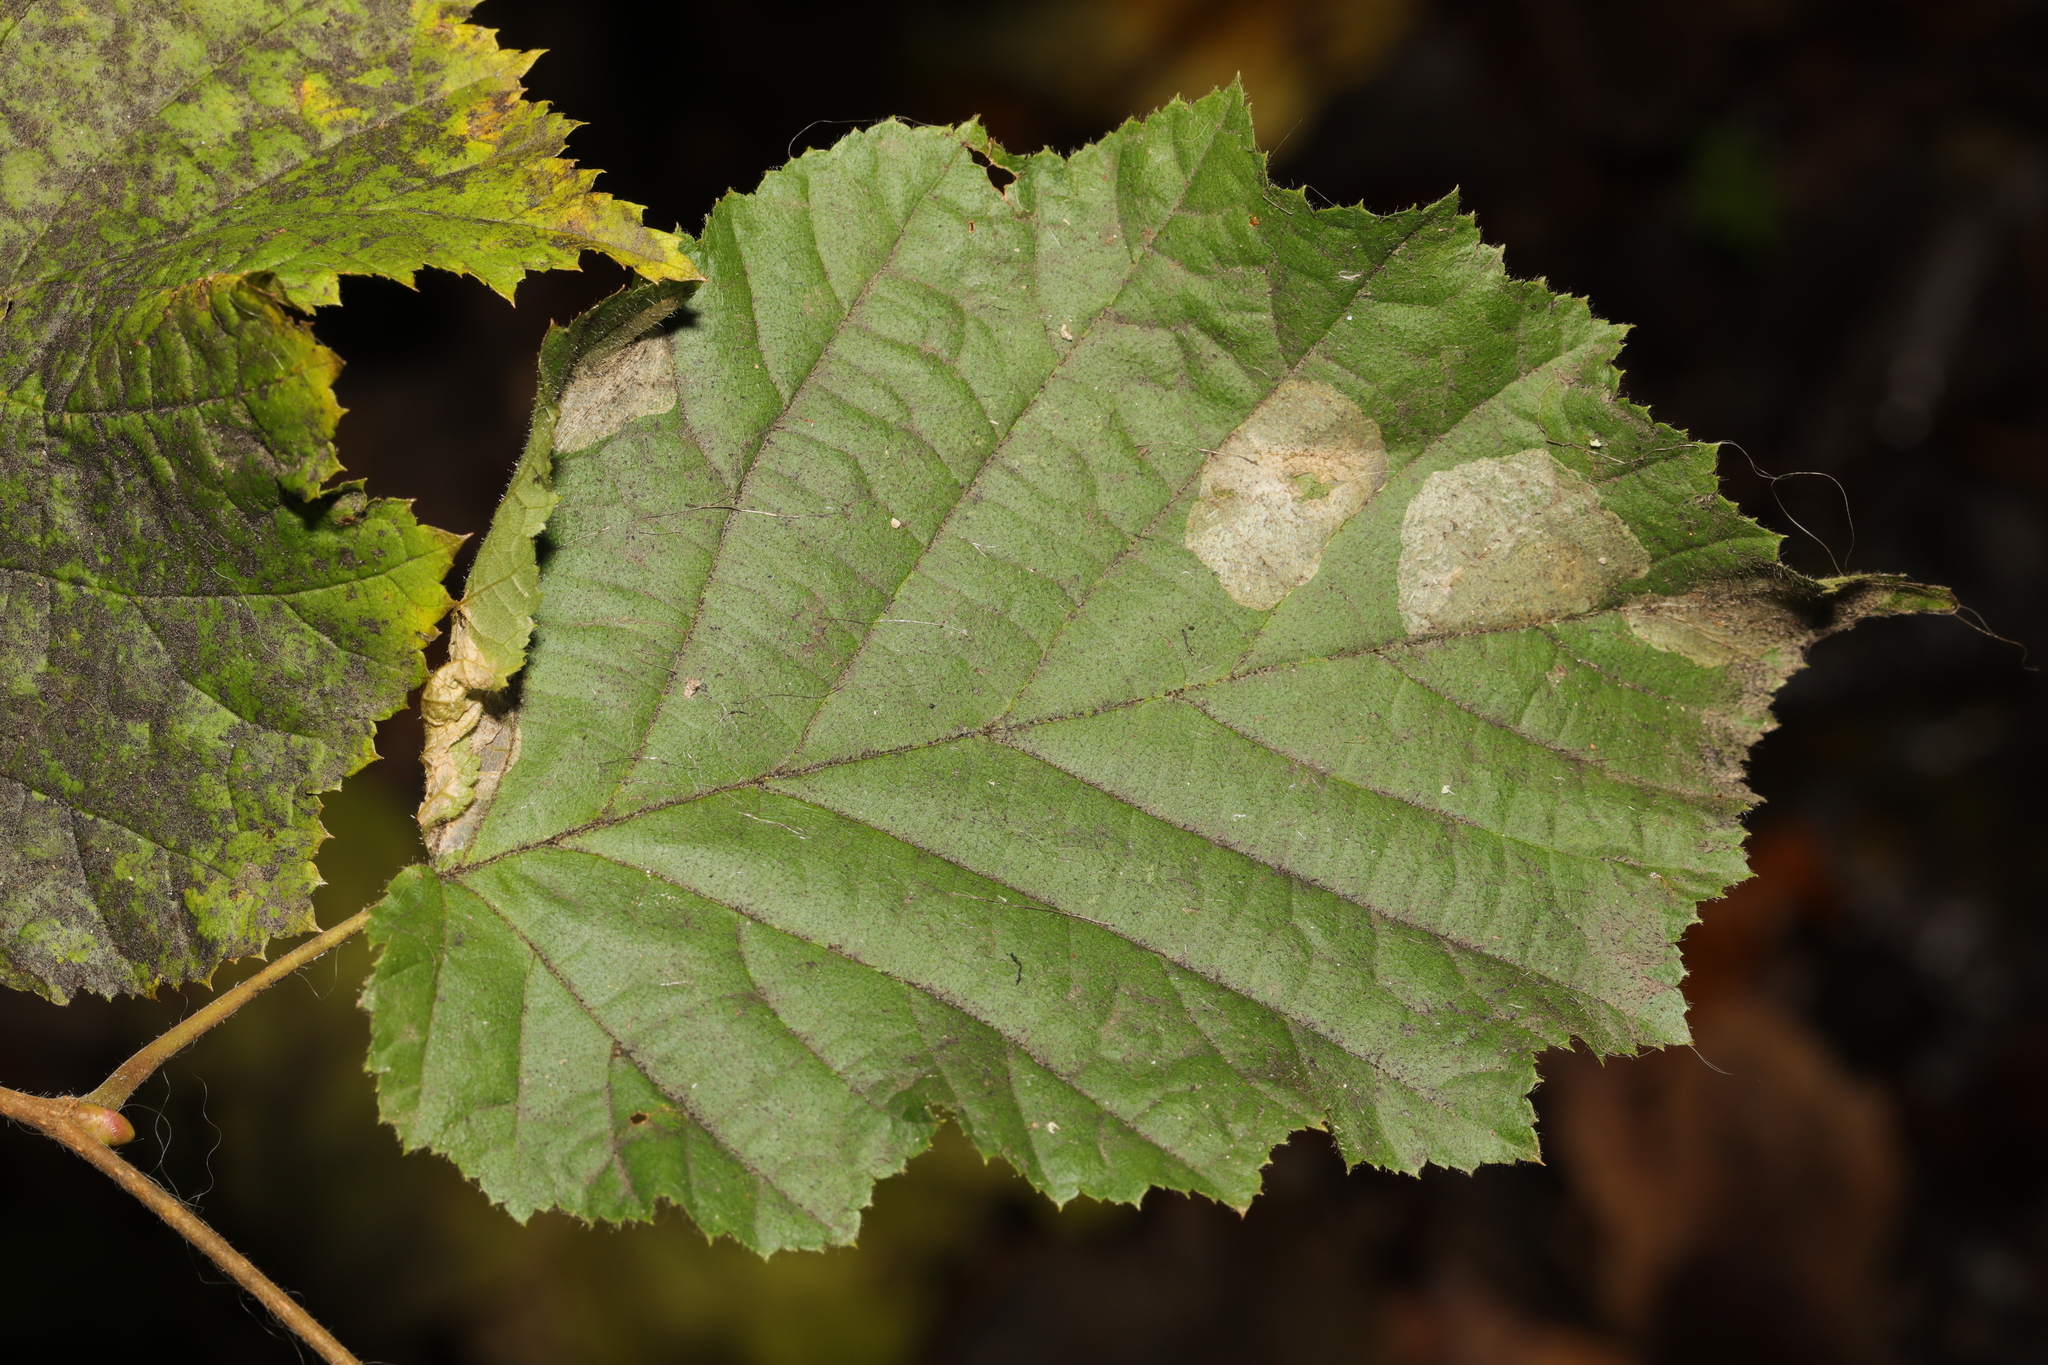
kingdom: Animalia
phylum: Arthropoda
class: Insecta
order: Lepidoptera
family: Gracillariidae
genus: Phyllonorycter
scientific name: Phyllonorycter coryli
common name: Nut-leaf blister moth
